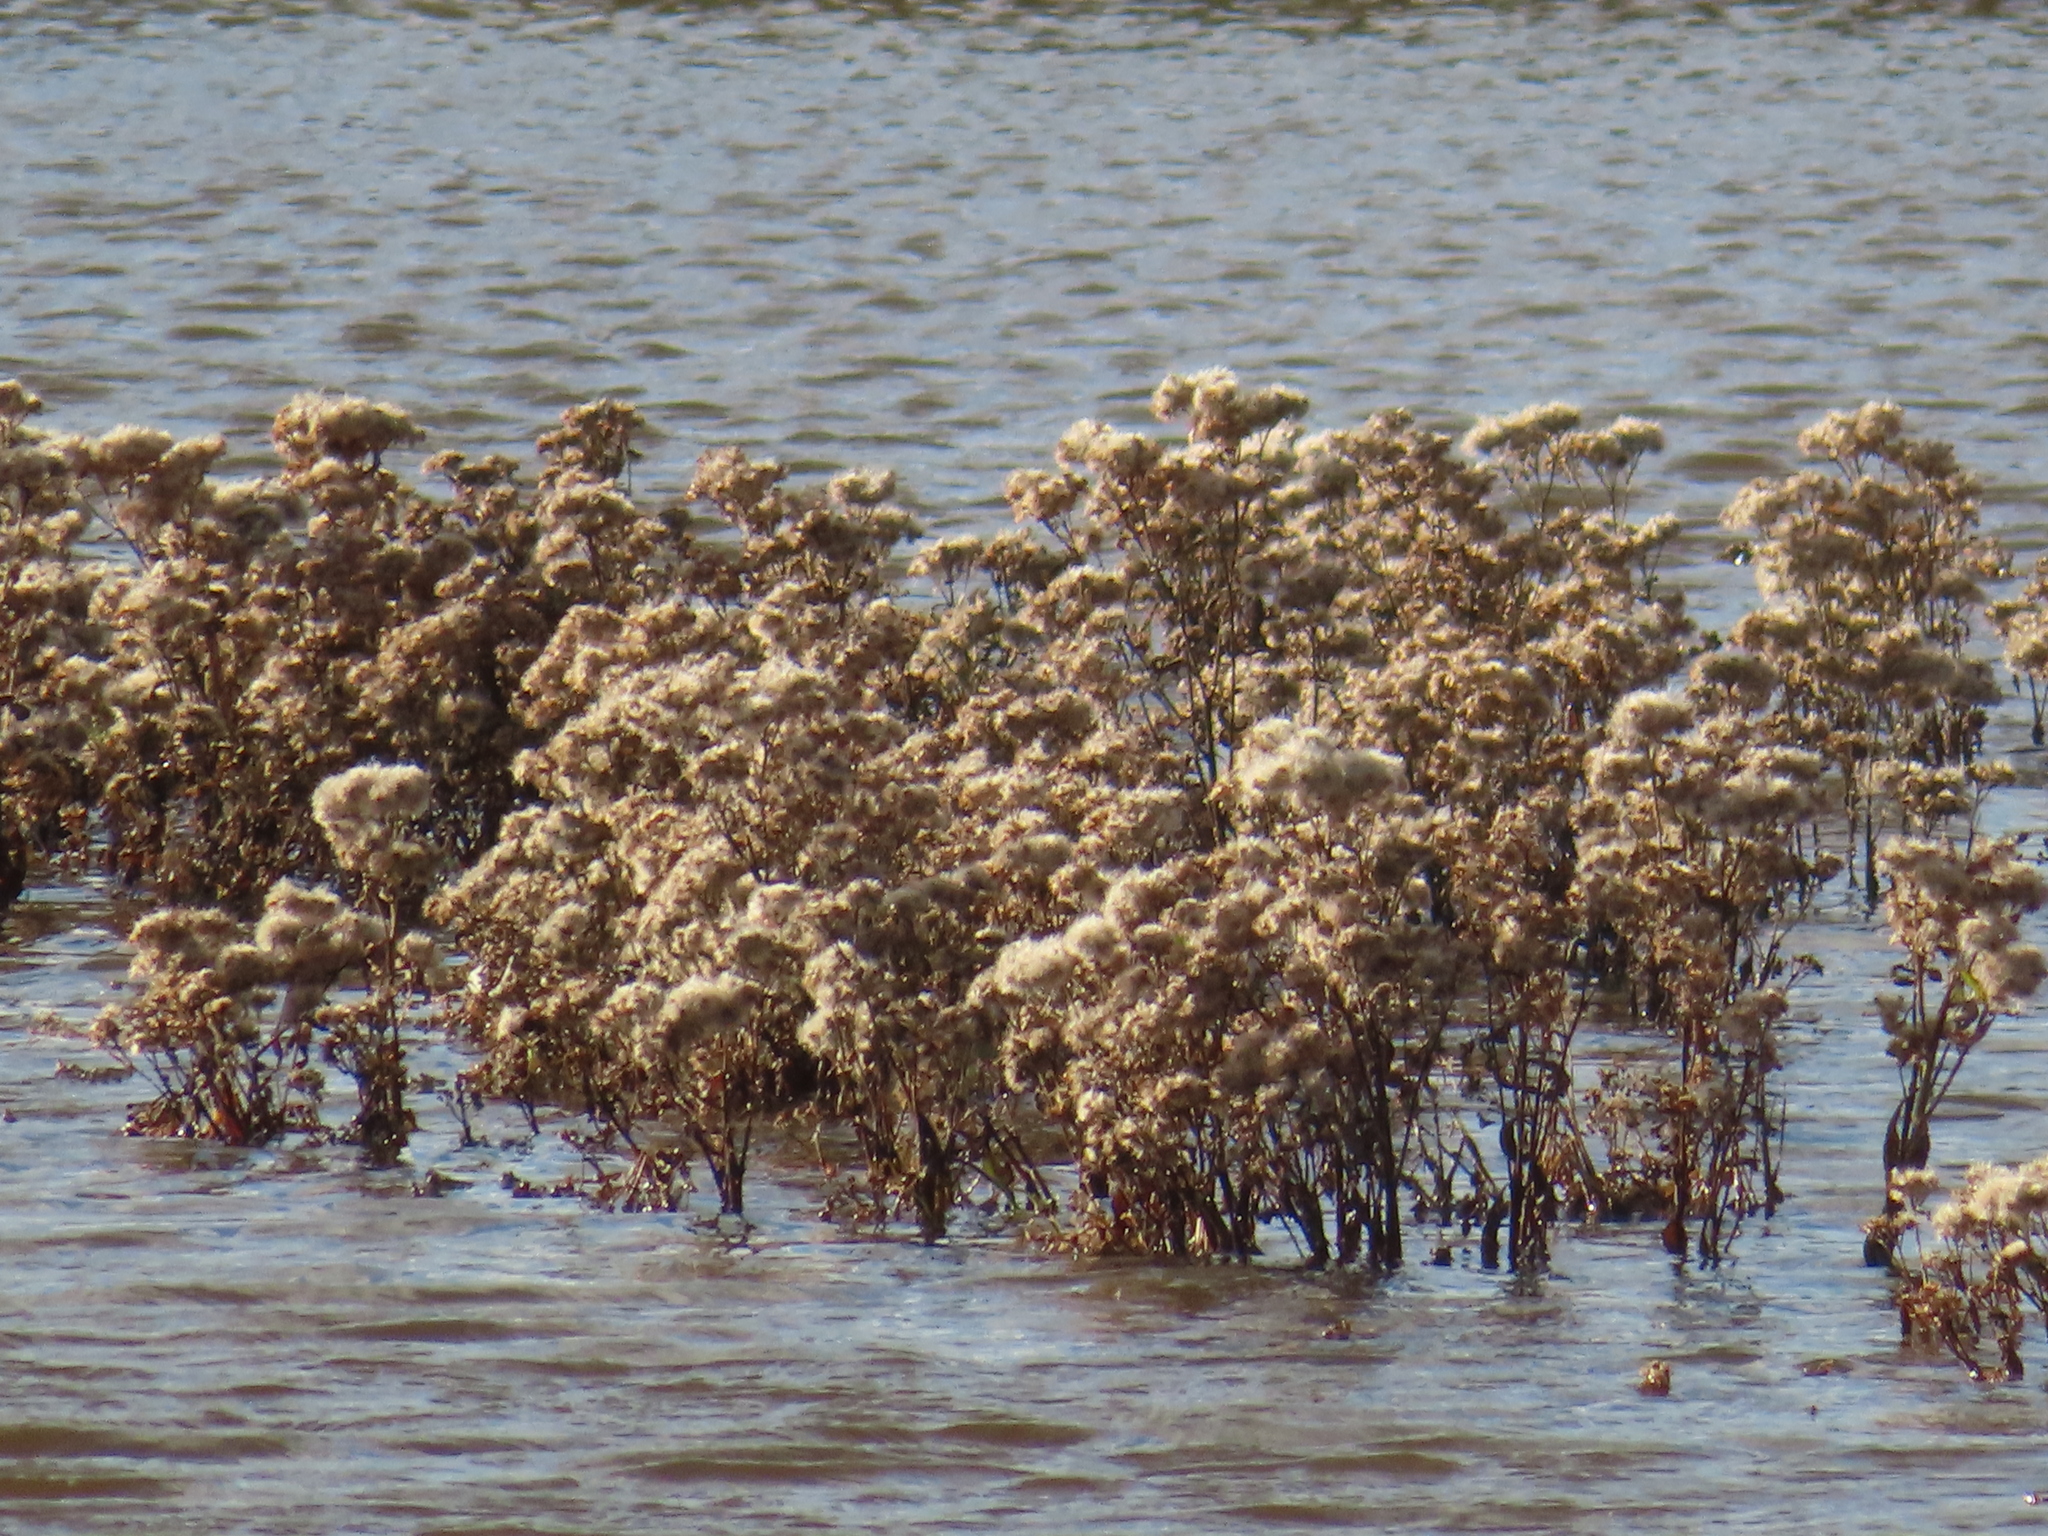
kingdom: Plantae
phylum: Tracheophyta
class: Magnoliopsida
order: Asterales
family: Asteraceae
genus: Pluchea
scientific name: Pluchea odorata
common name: Saltmarsh fleabane
